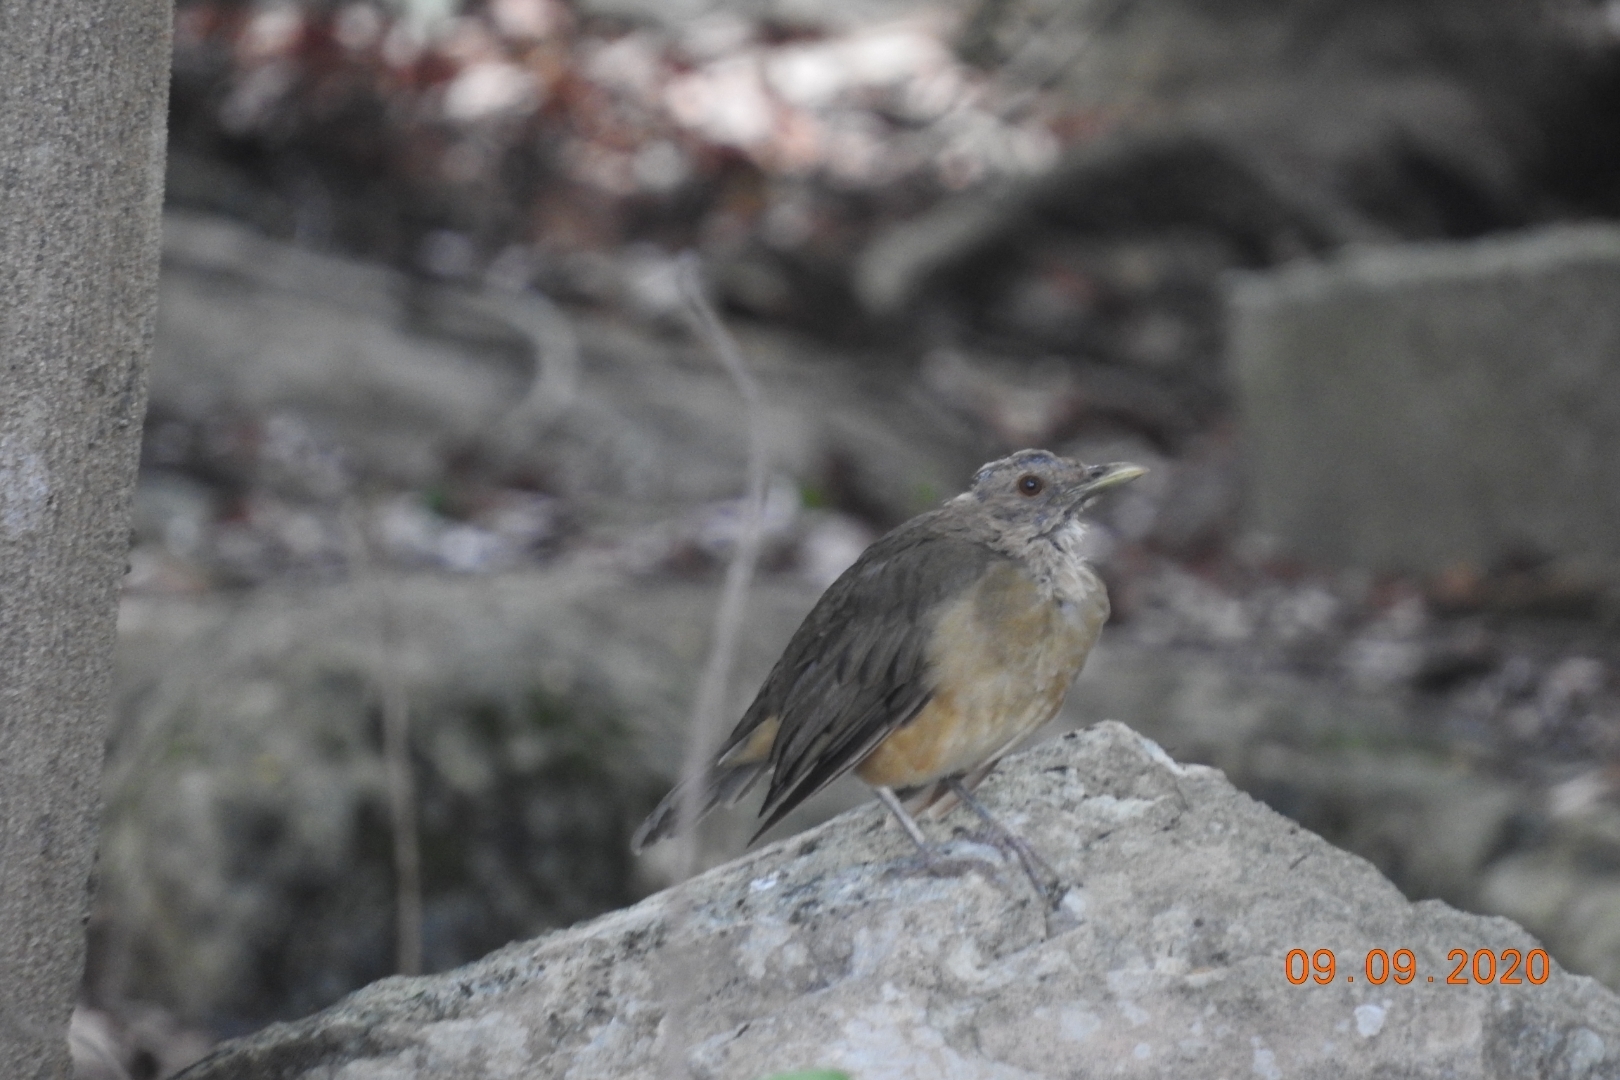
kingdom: Animalia
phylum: Chordata
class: Aves
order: Passeriformes
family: Turdidae
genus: Turdus
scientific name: Turdus grayi
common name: Clay-colored thrush
